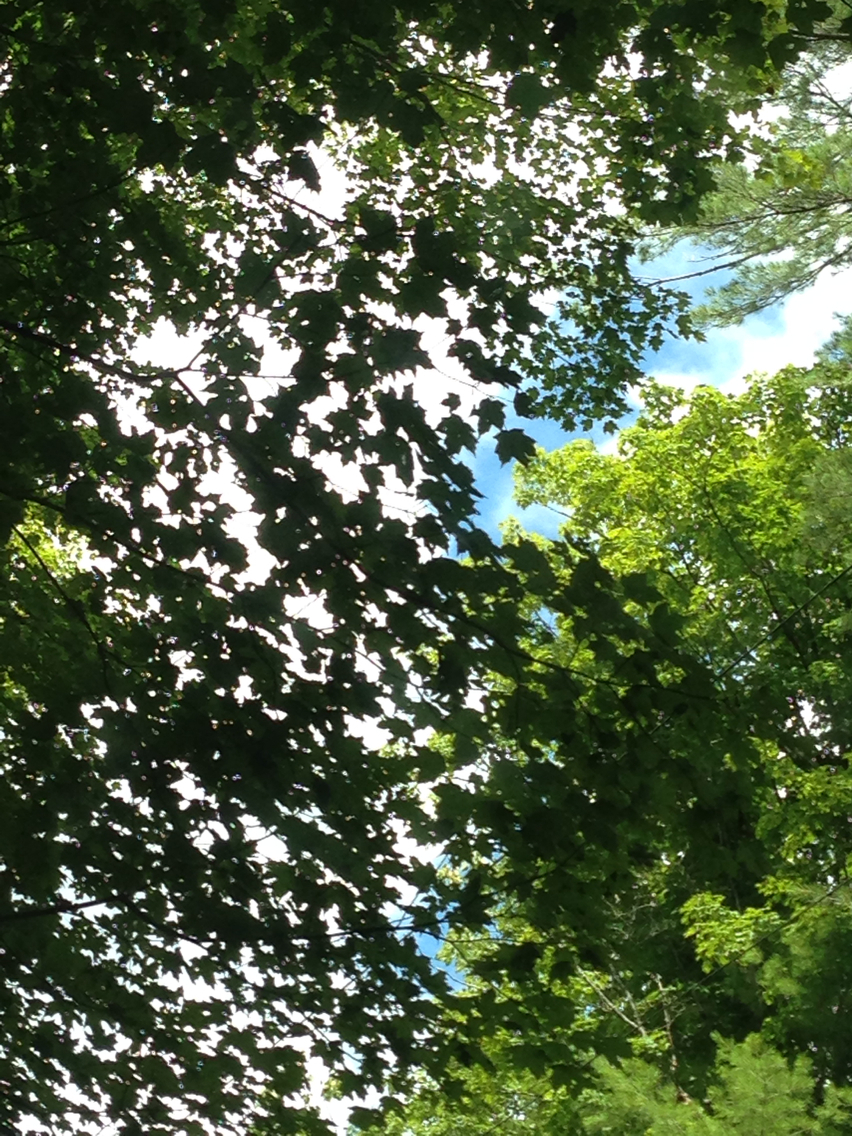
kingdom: Plantae
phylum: Tracheophyta
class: Magnoliopsida
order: Sapindales
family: Sapindaceae
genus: Acer
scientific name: Acer saccharum
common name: Sugar maple
